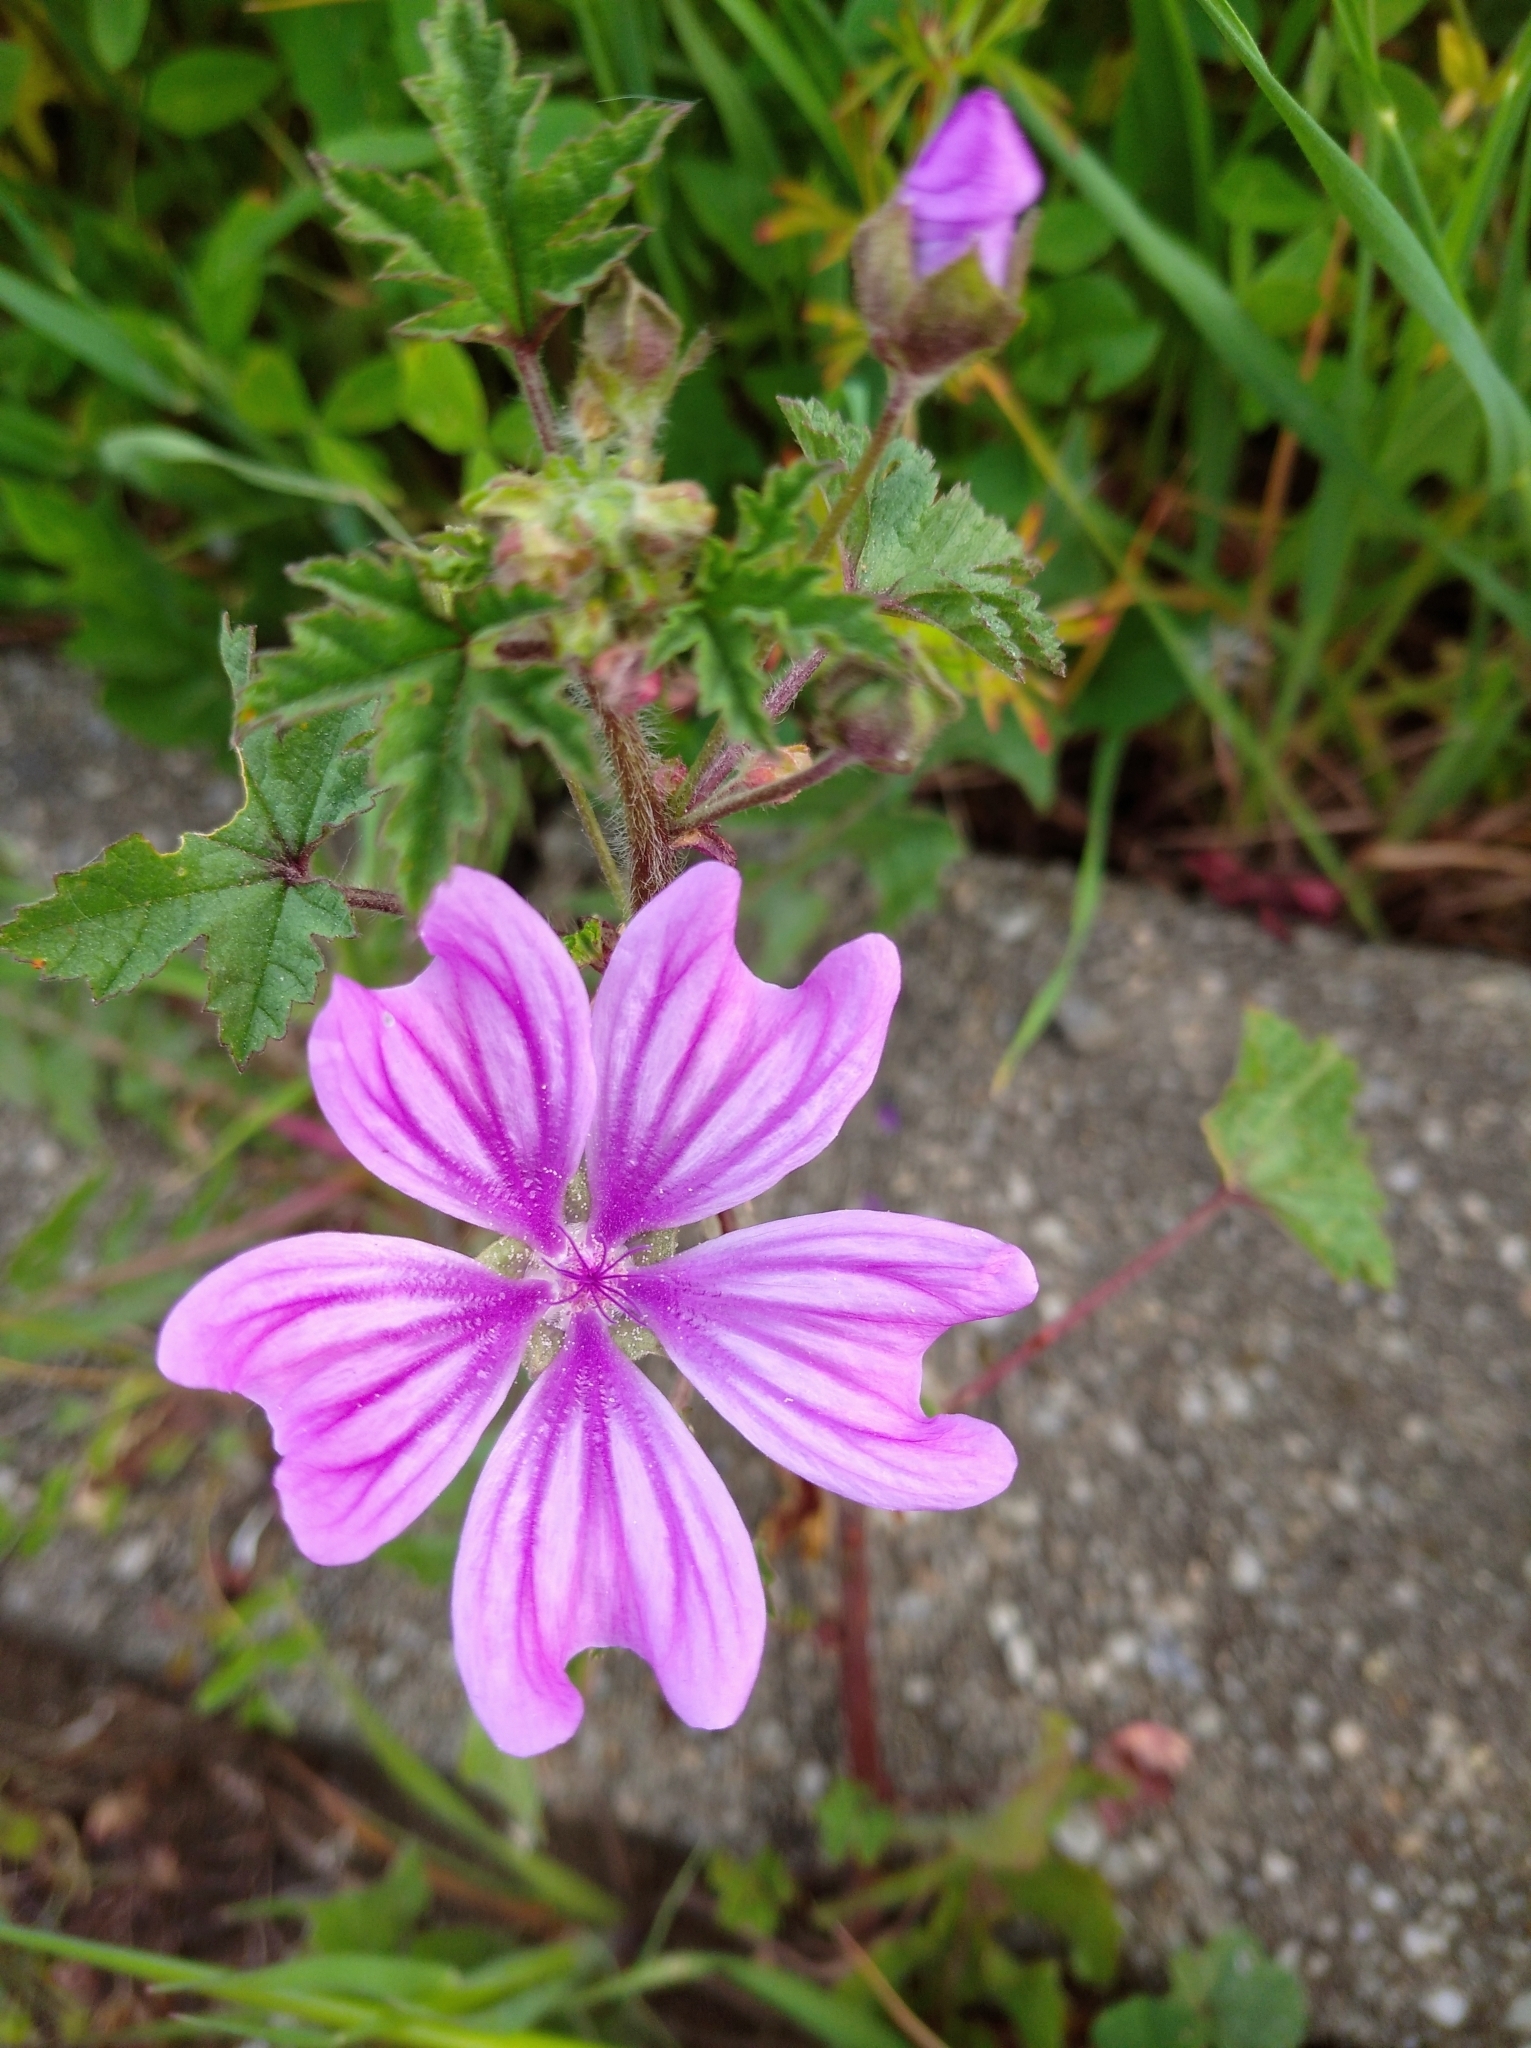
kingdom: Plantae
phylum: Tracheophyta
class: Magnoliopsida
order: Malvales
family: Malvaceae
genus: Malva
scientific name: Malva sylvestris
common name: Common mallow
